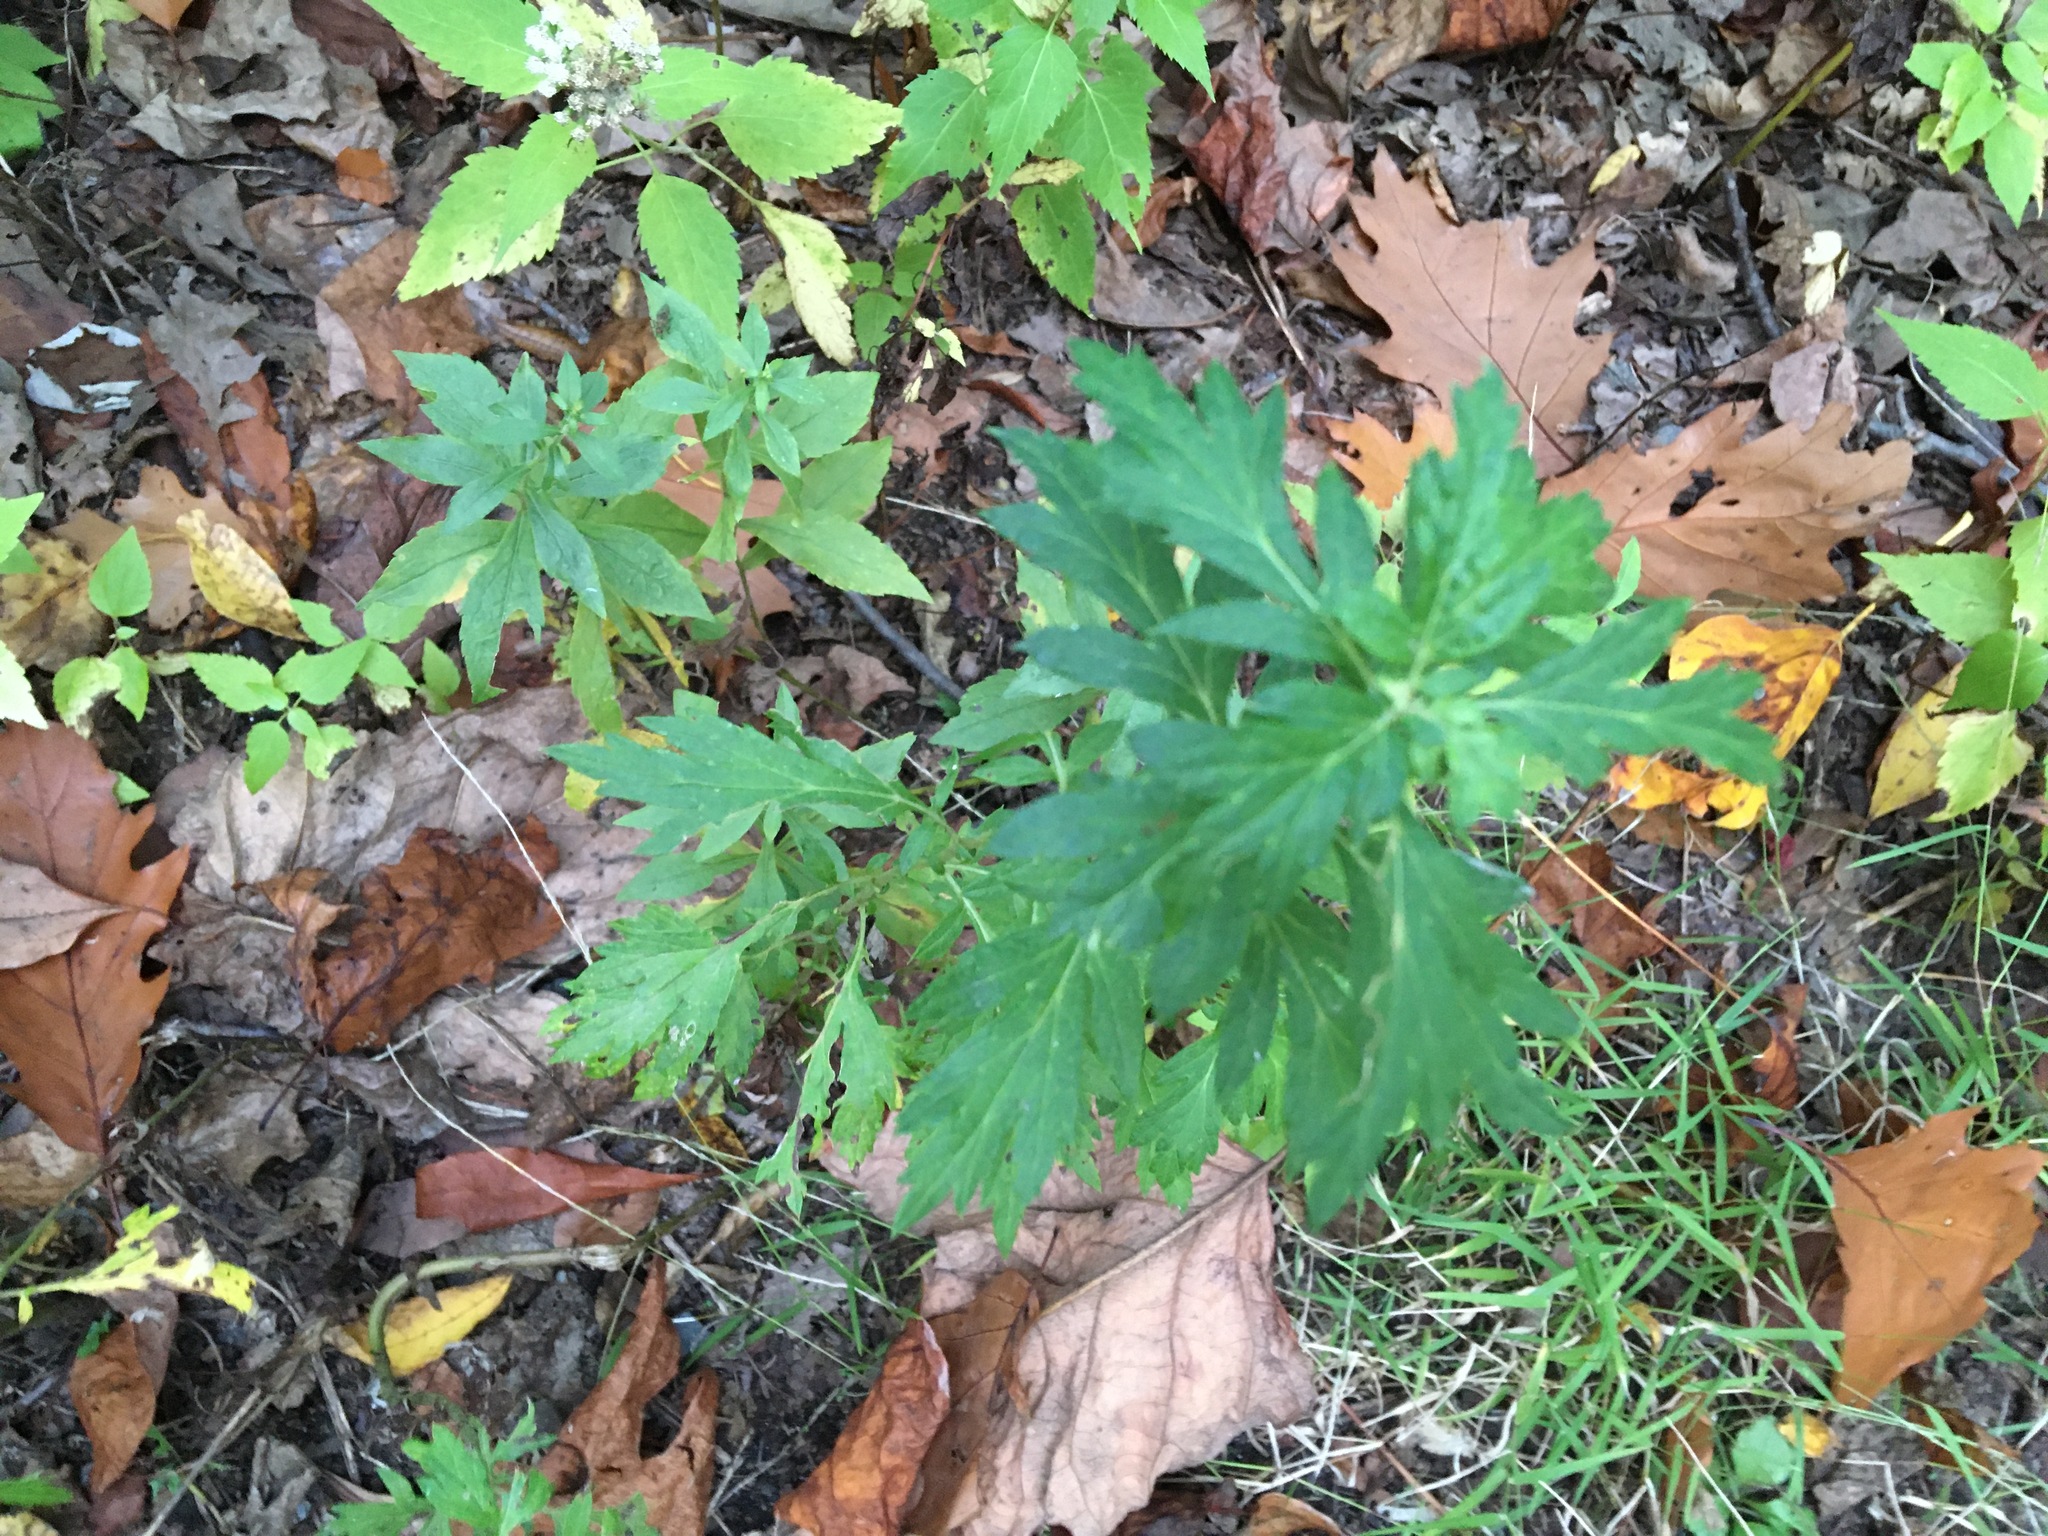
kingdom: Plantae
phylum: Tracheophyta
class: Magnoliopsida
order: Asterales
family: Asteraceae
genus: Artemisia
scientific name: Artemisia vulgaris
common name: Mugwort
